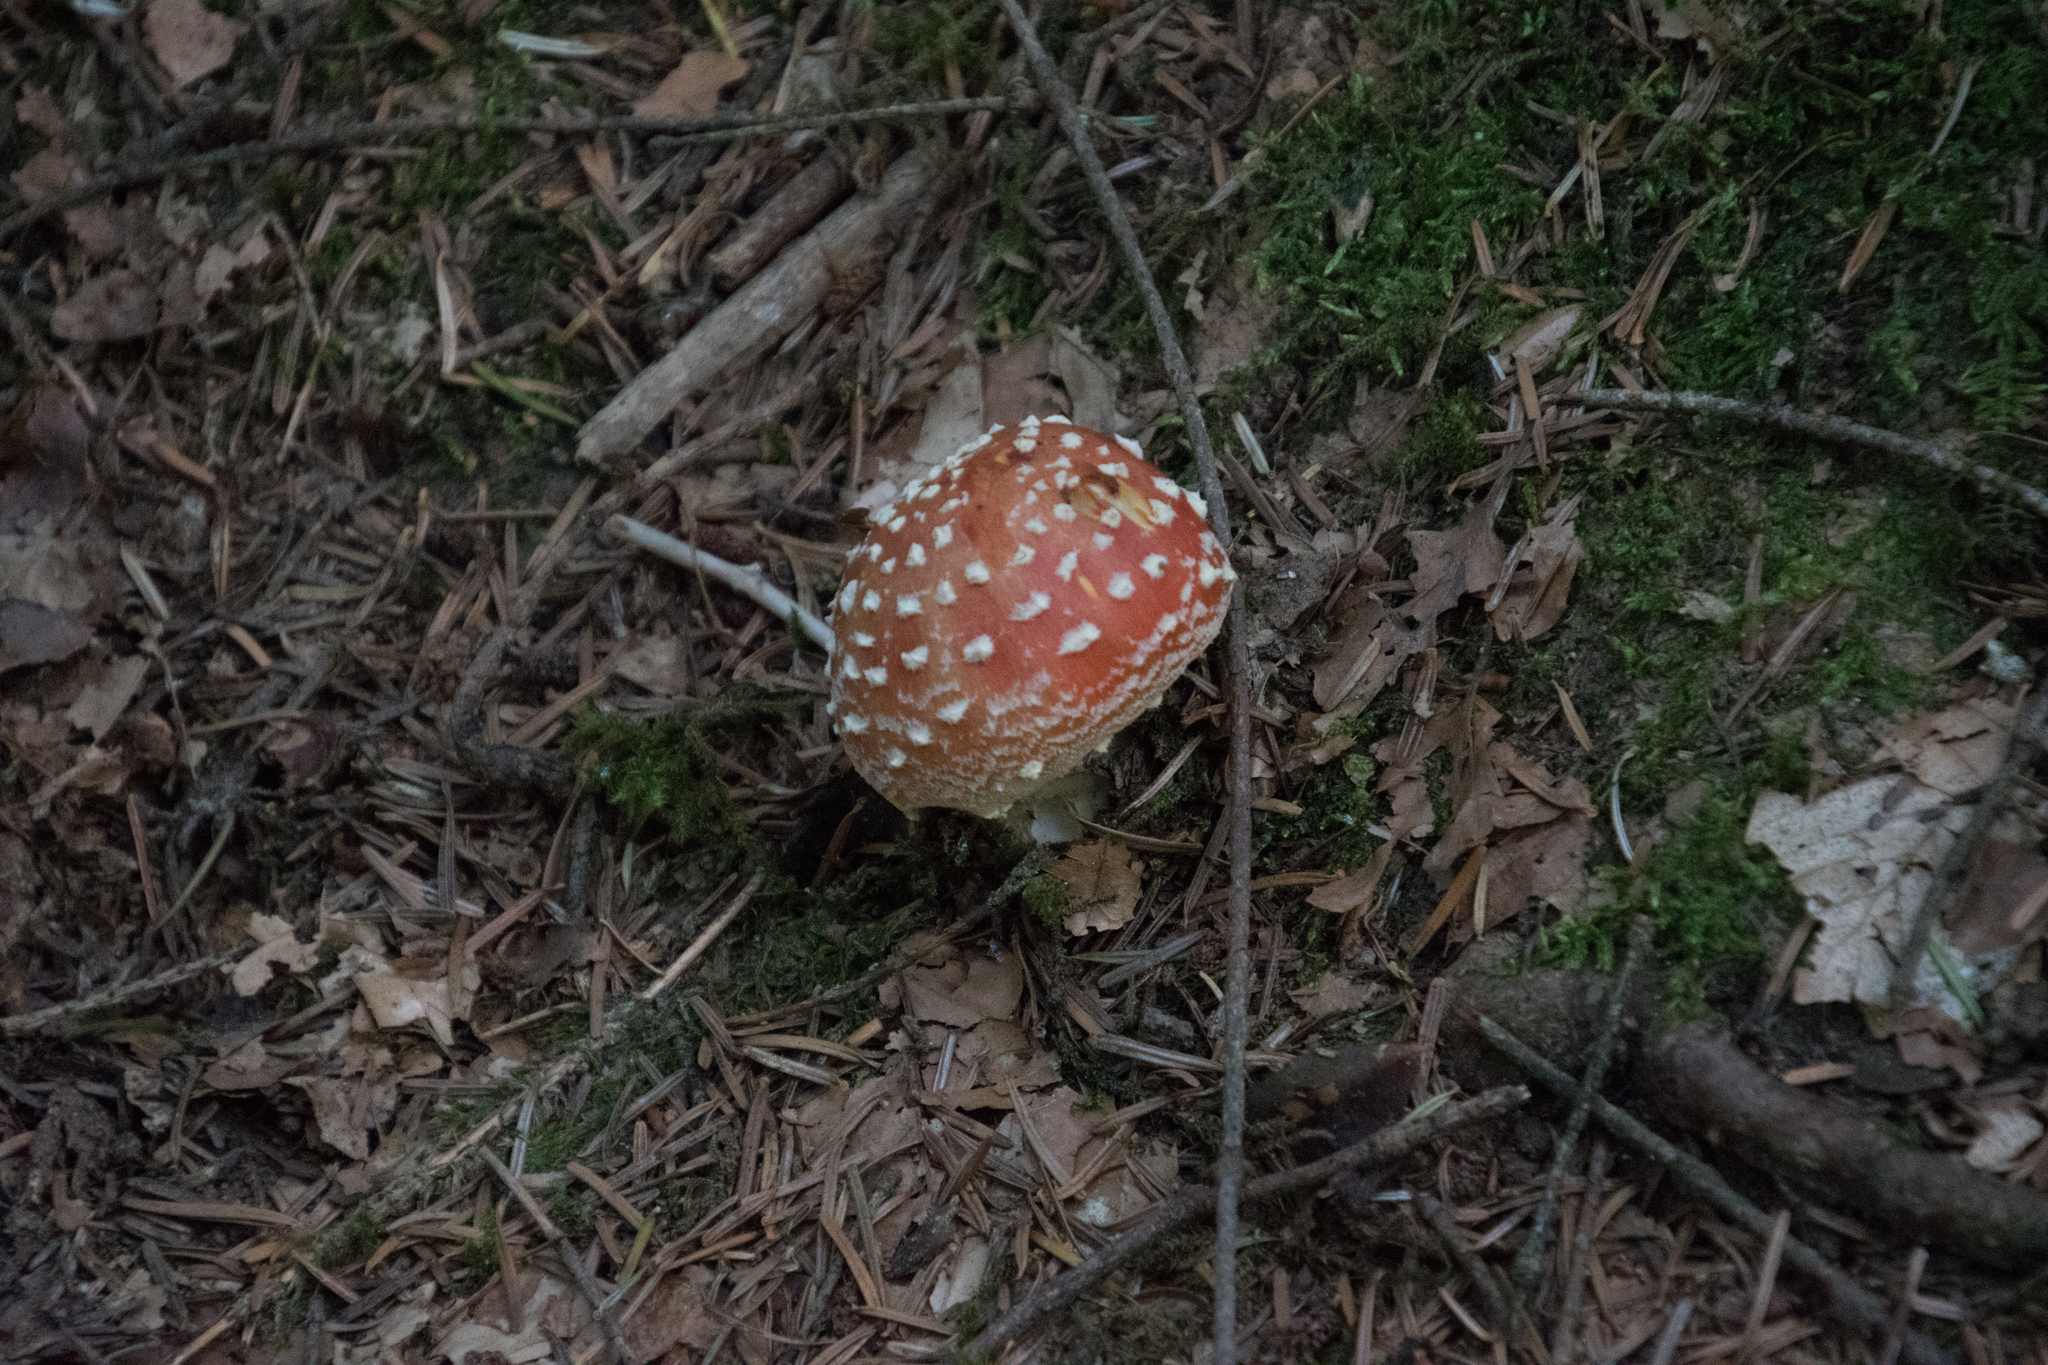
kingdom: Fungi
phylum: Basidiomycota
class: Agaricomycetes
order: Agaricales
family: Amanitaceae
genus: Amanita
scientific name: Amanita muscaria
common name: Fly agaric
